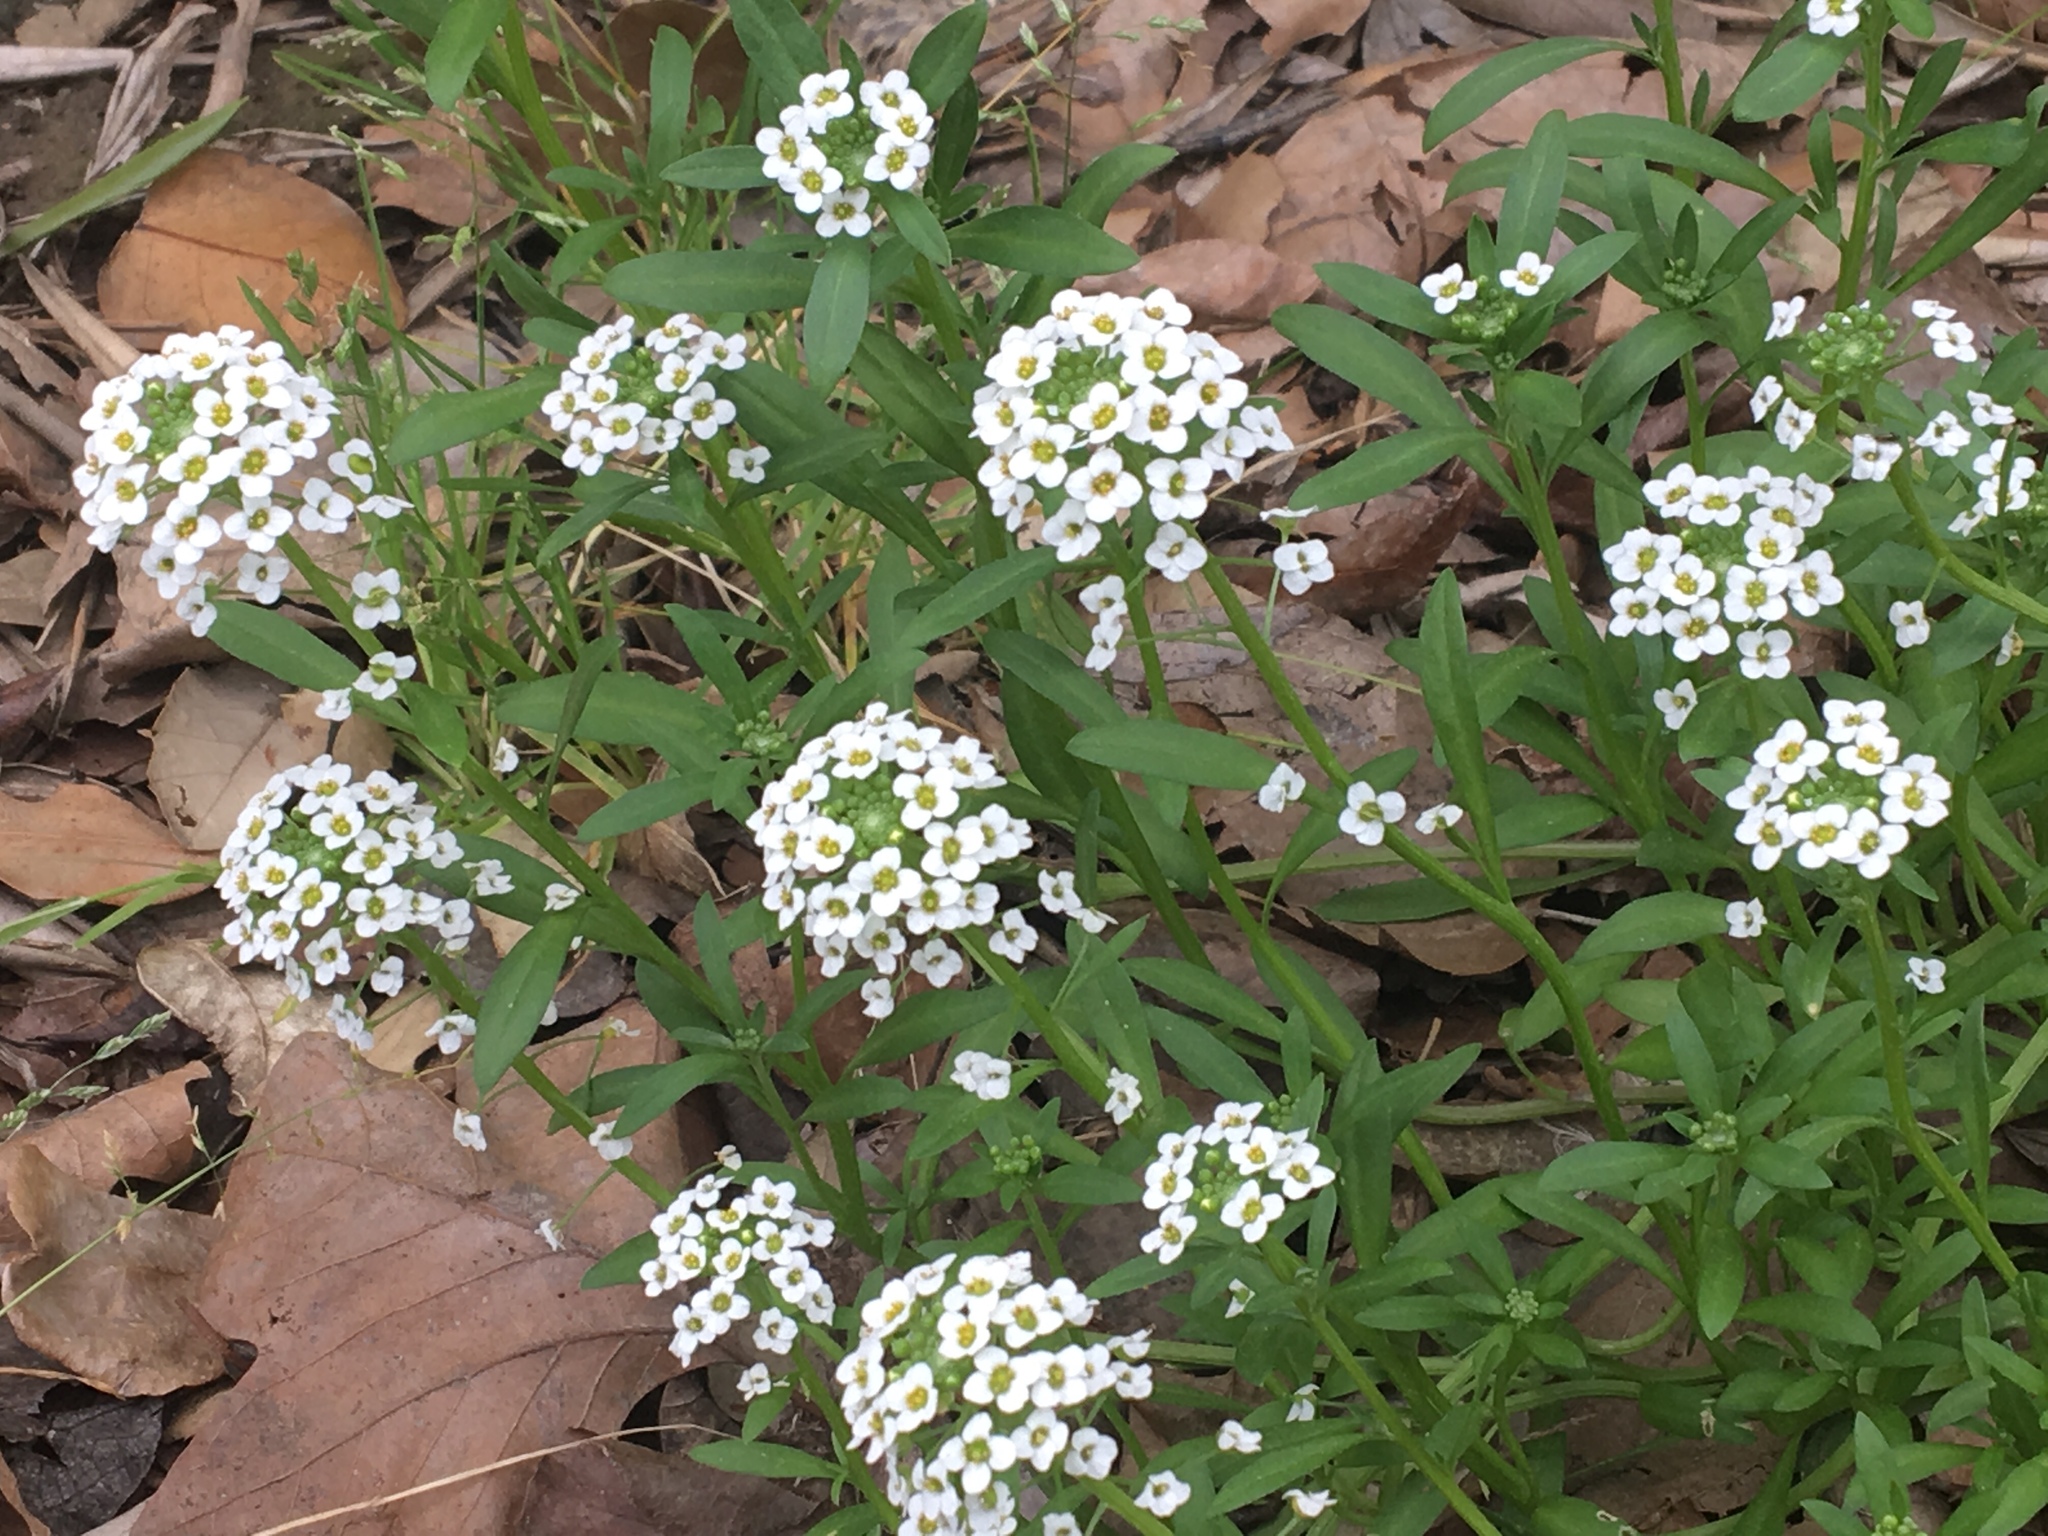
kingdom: Plantae
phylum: Tracheophyta
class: Magnoliopsida
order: Brassicales
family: Brassicaceae
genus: Lobularia
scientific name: Lobularia maritima
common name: Sweet alison
